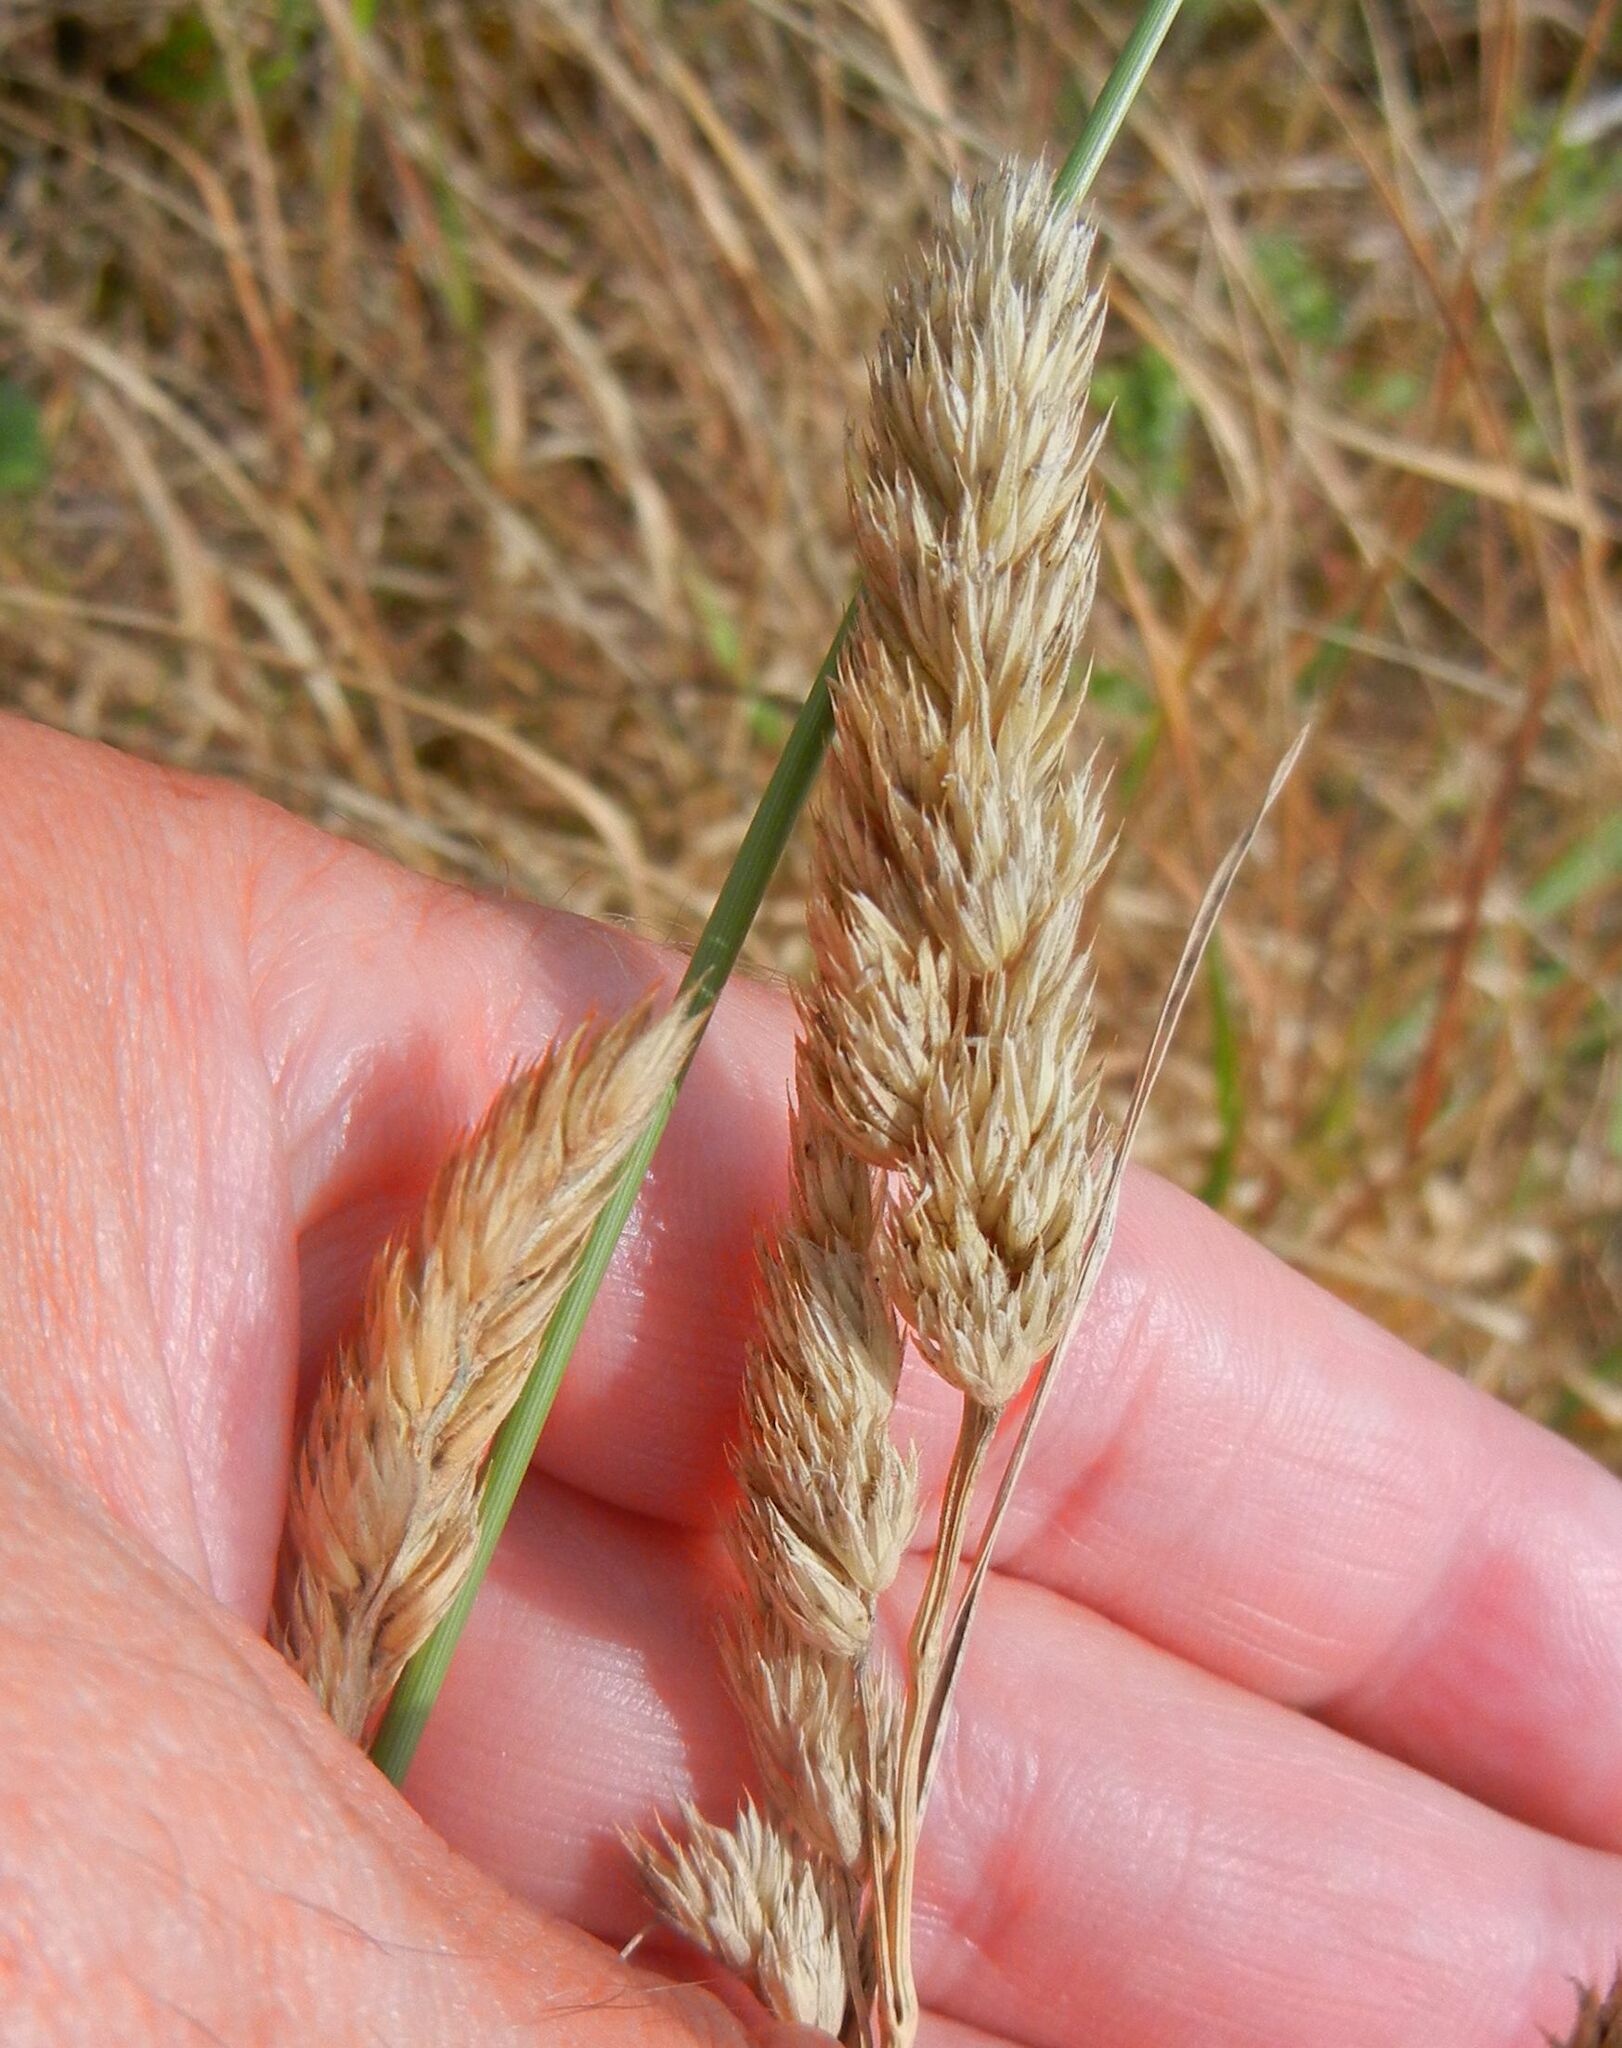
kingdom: Plantae
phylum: Tracheophyta
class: Liliopsida
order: Poales
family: Poaceae
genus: Dactylis
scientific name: Dactylis glomerata
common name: Orchardgrass
